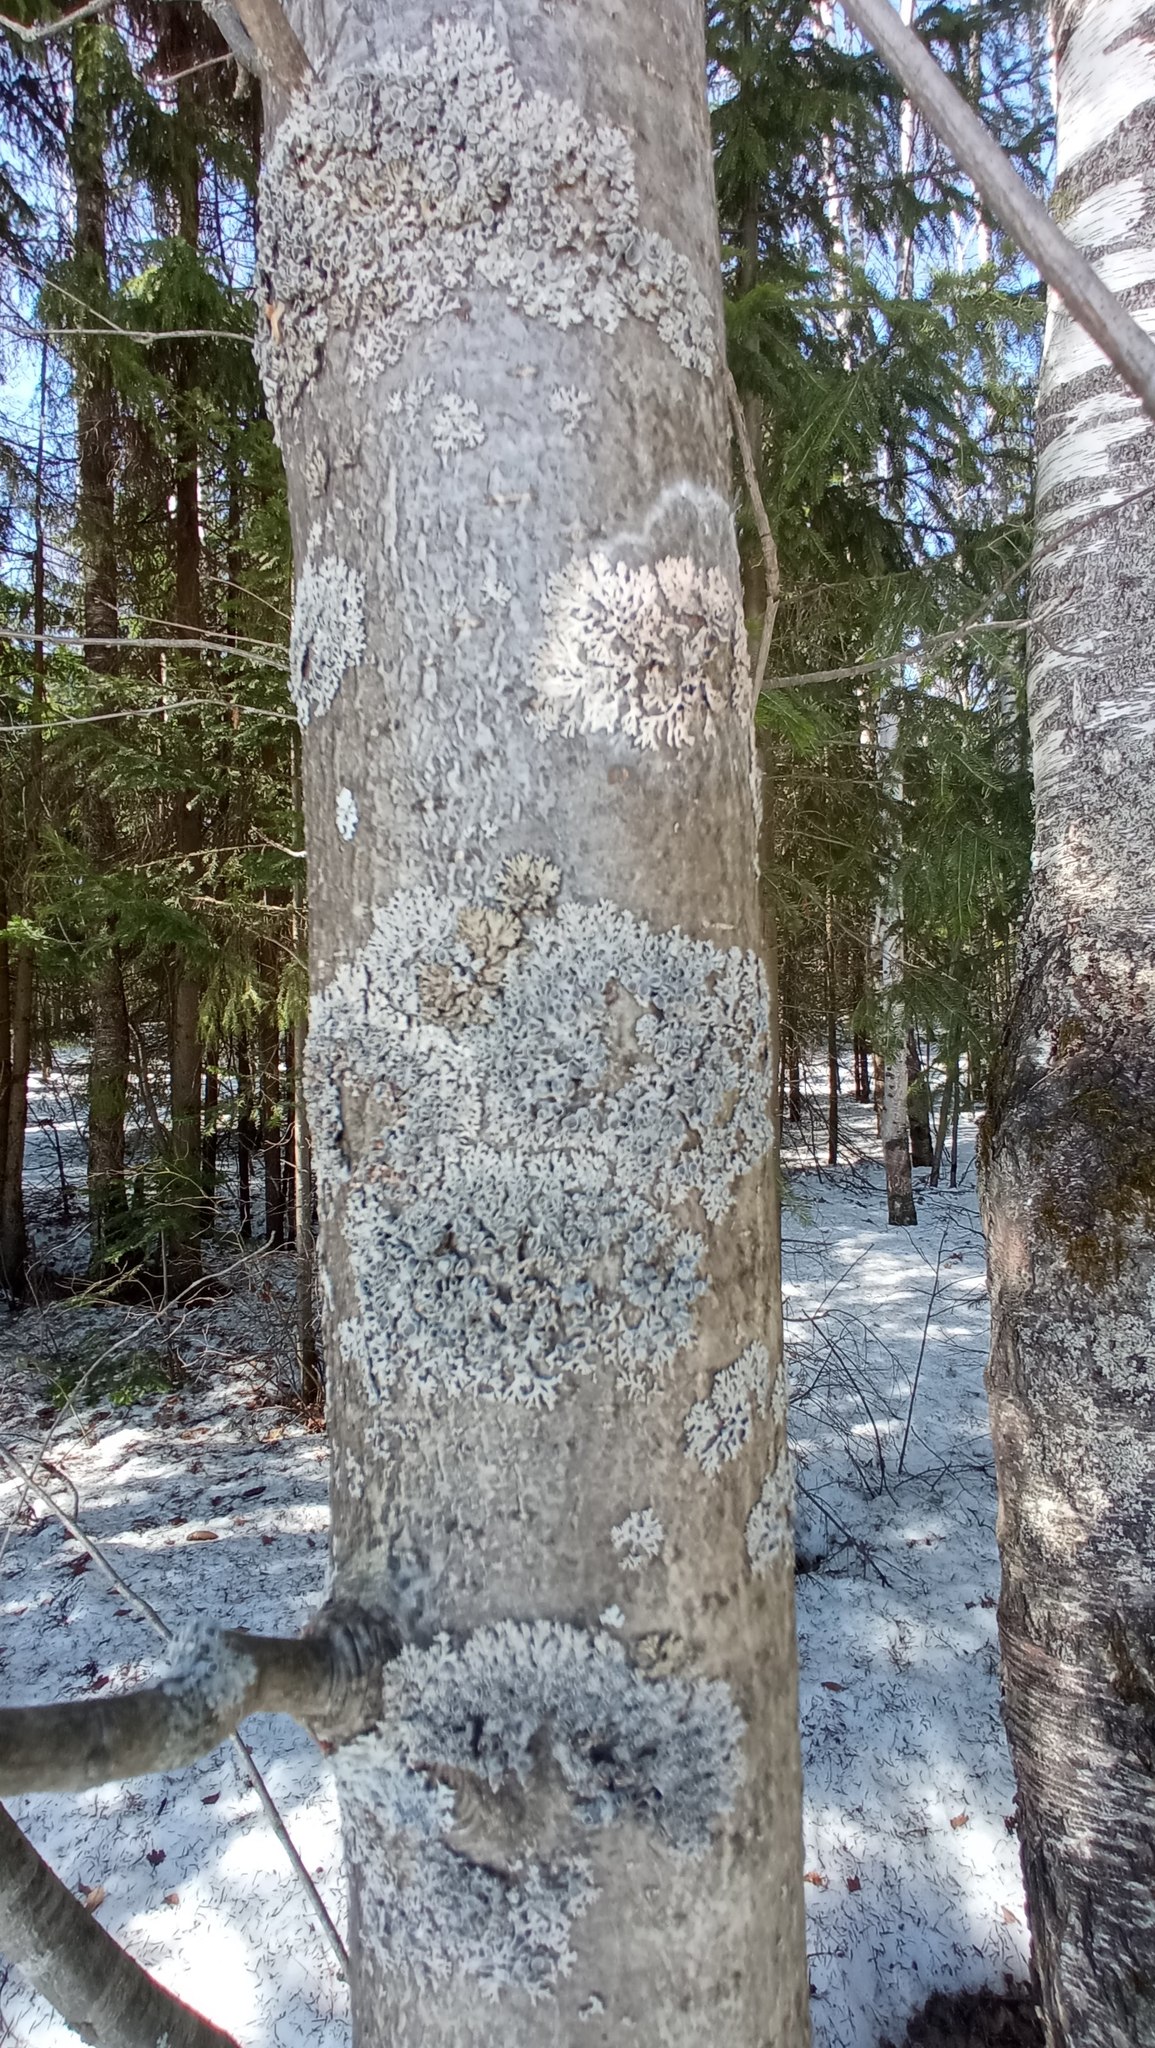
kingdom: Fungi
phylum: Ascomycota
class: Lecanoromycetes
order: Caliciales
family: Physciaceae
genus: Physcia
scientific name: Physcia aipolia
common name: Hoary rosette lichen
